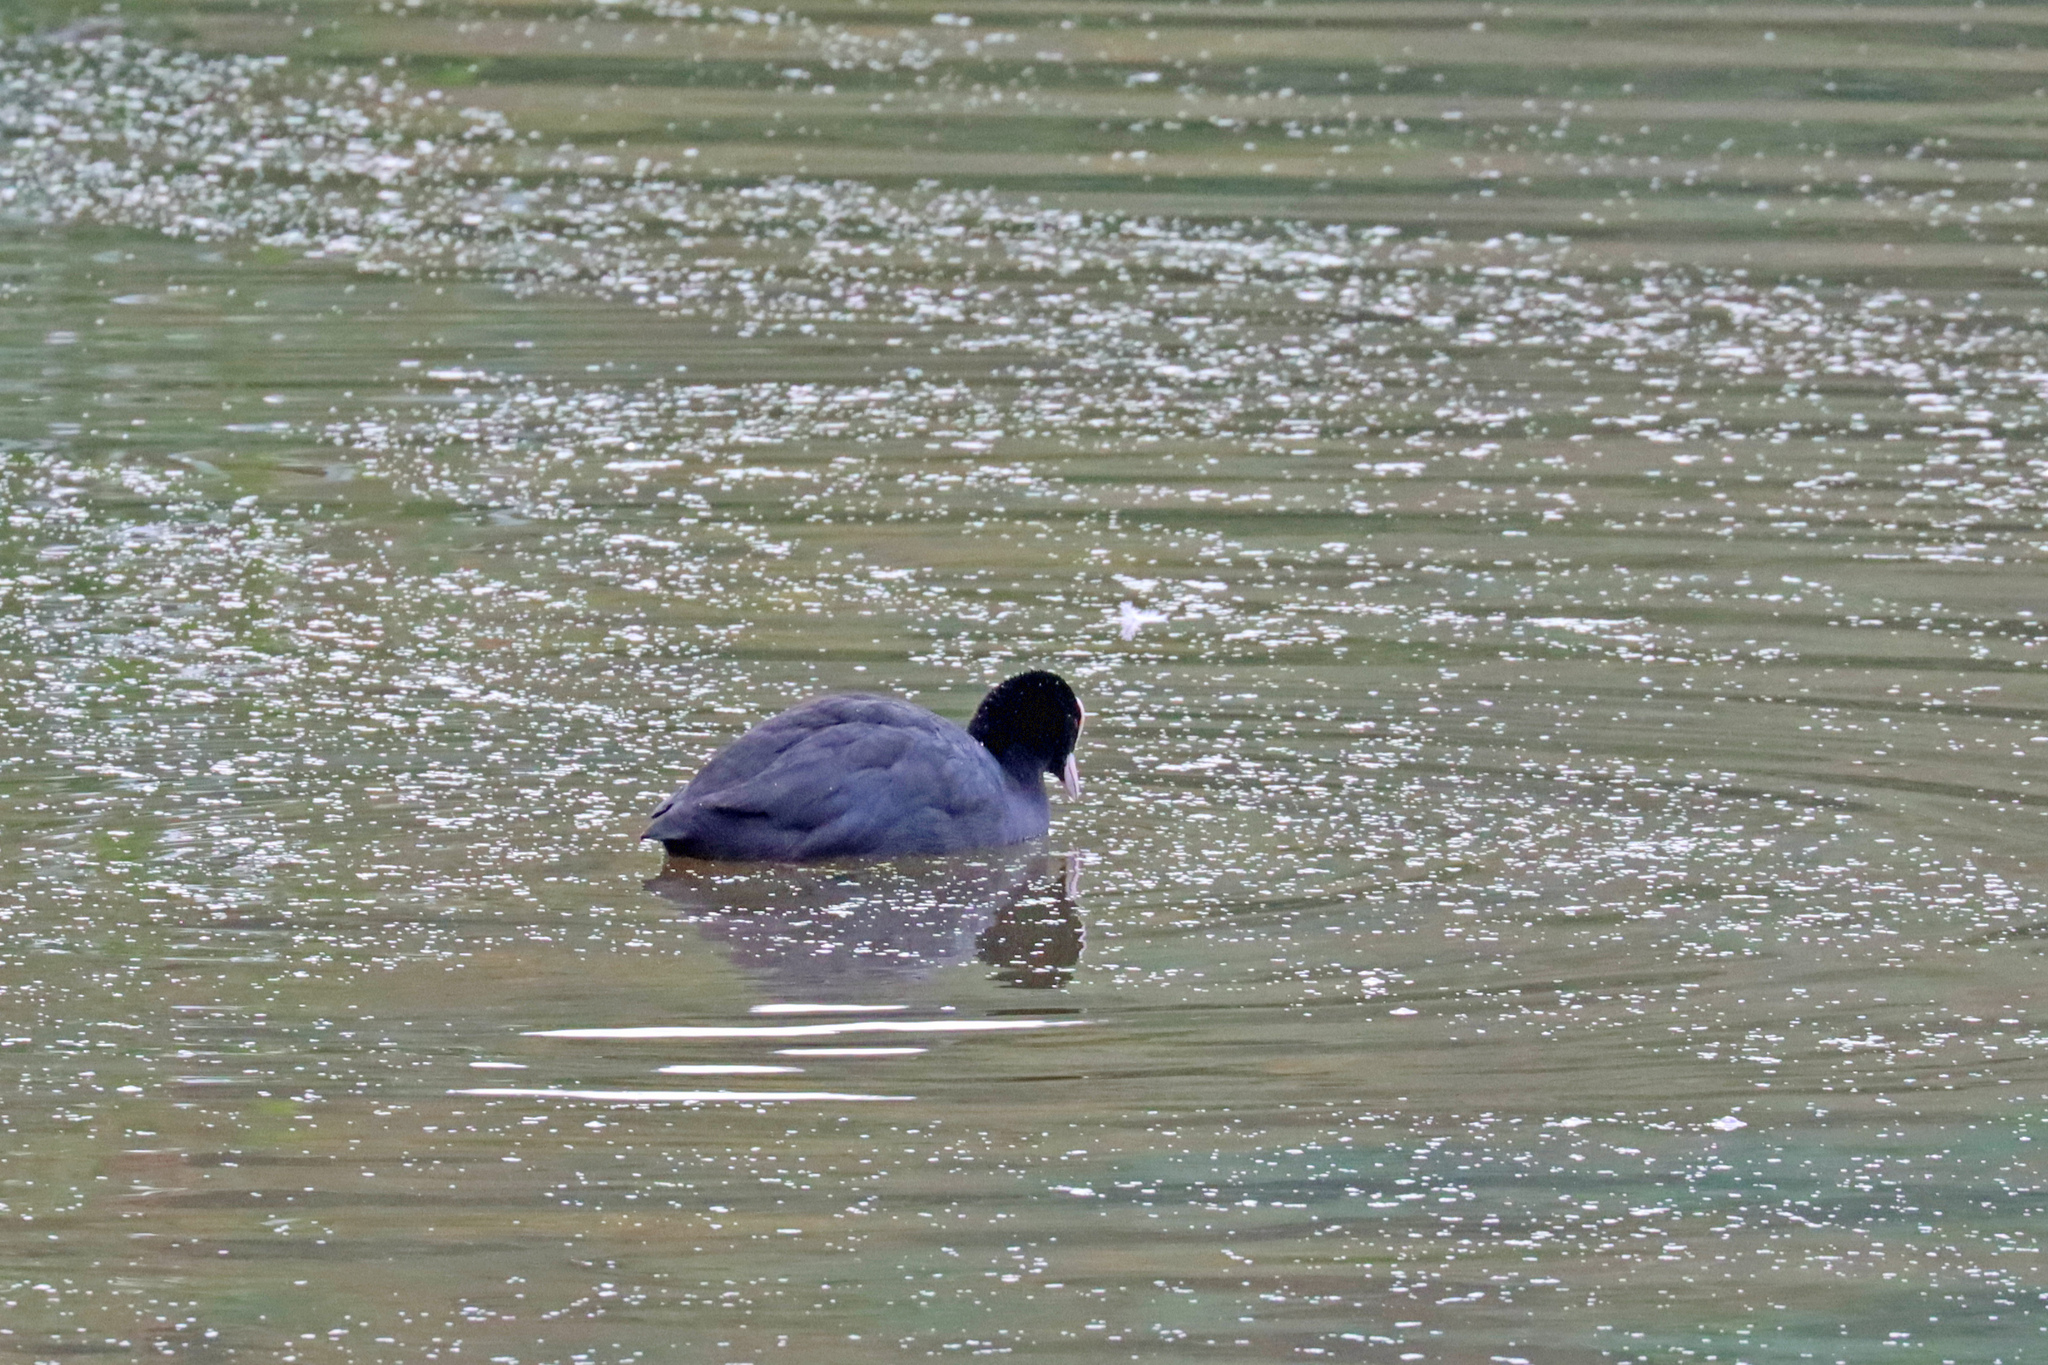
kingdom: Animalia
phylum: Chordata
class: Aves
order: Gruiformes
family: Rallidae
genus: Fulica
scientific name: Fulica atra
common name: Eurasian coot
